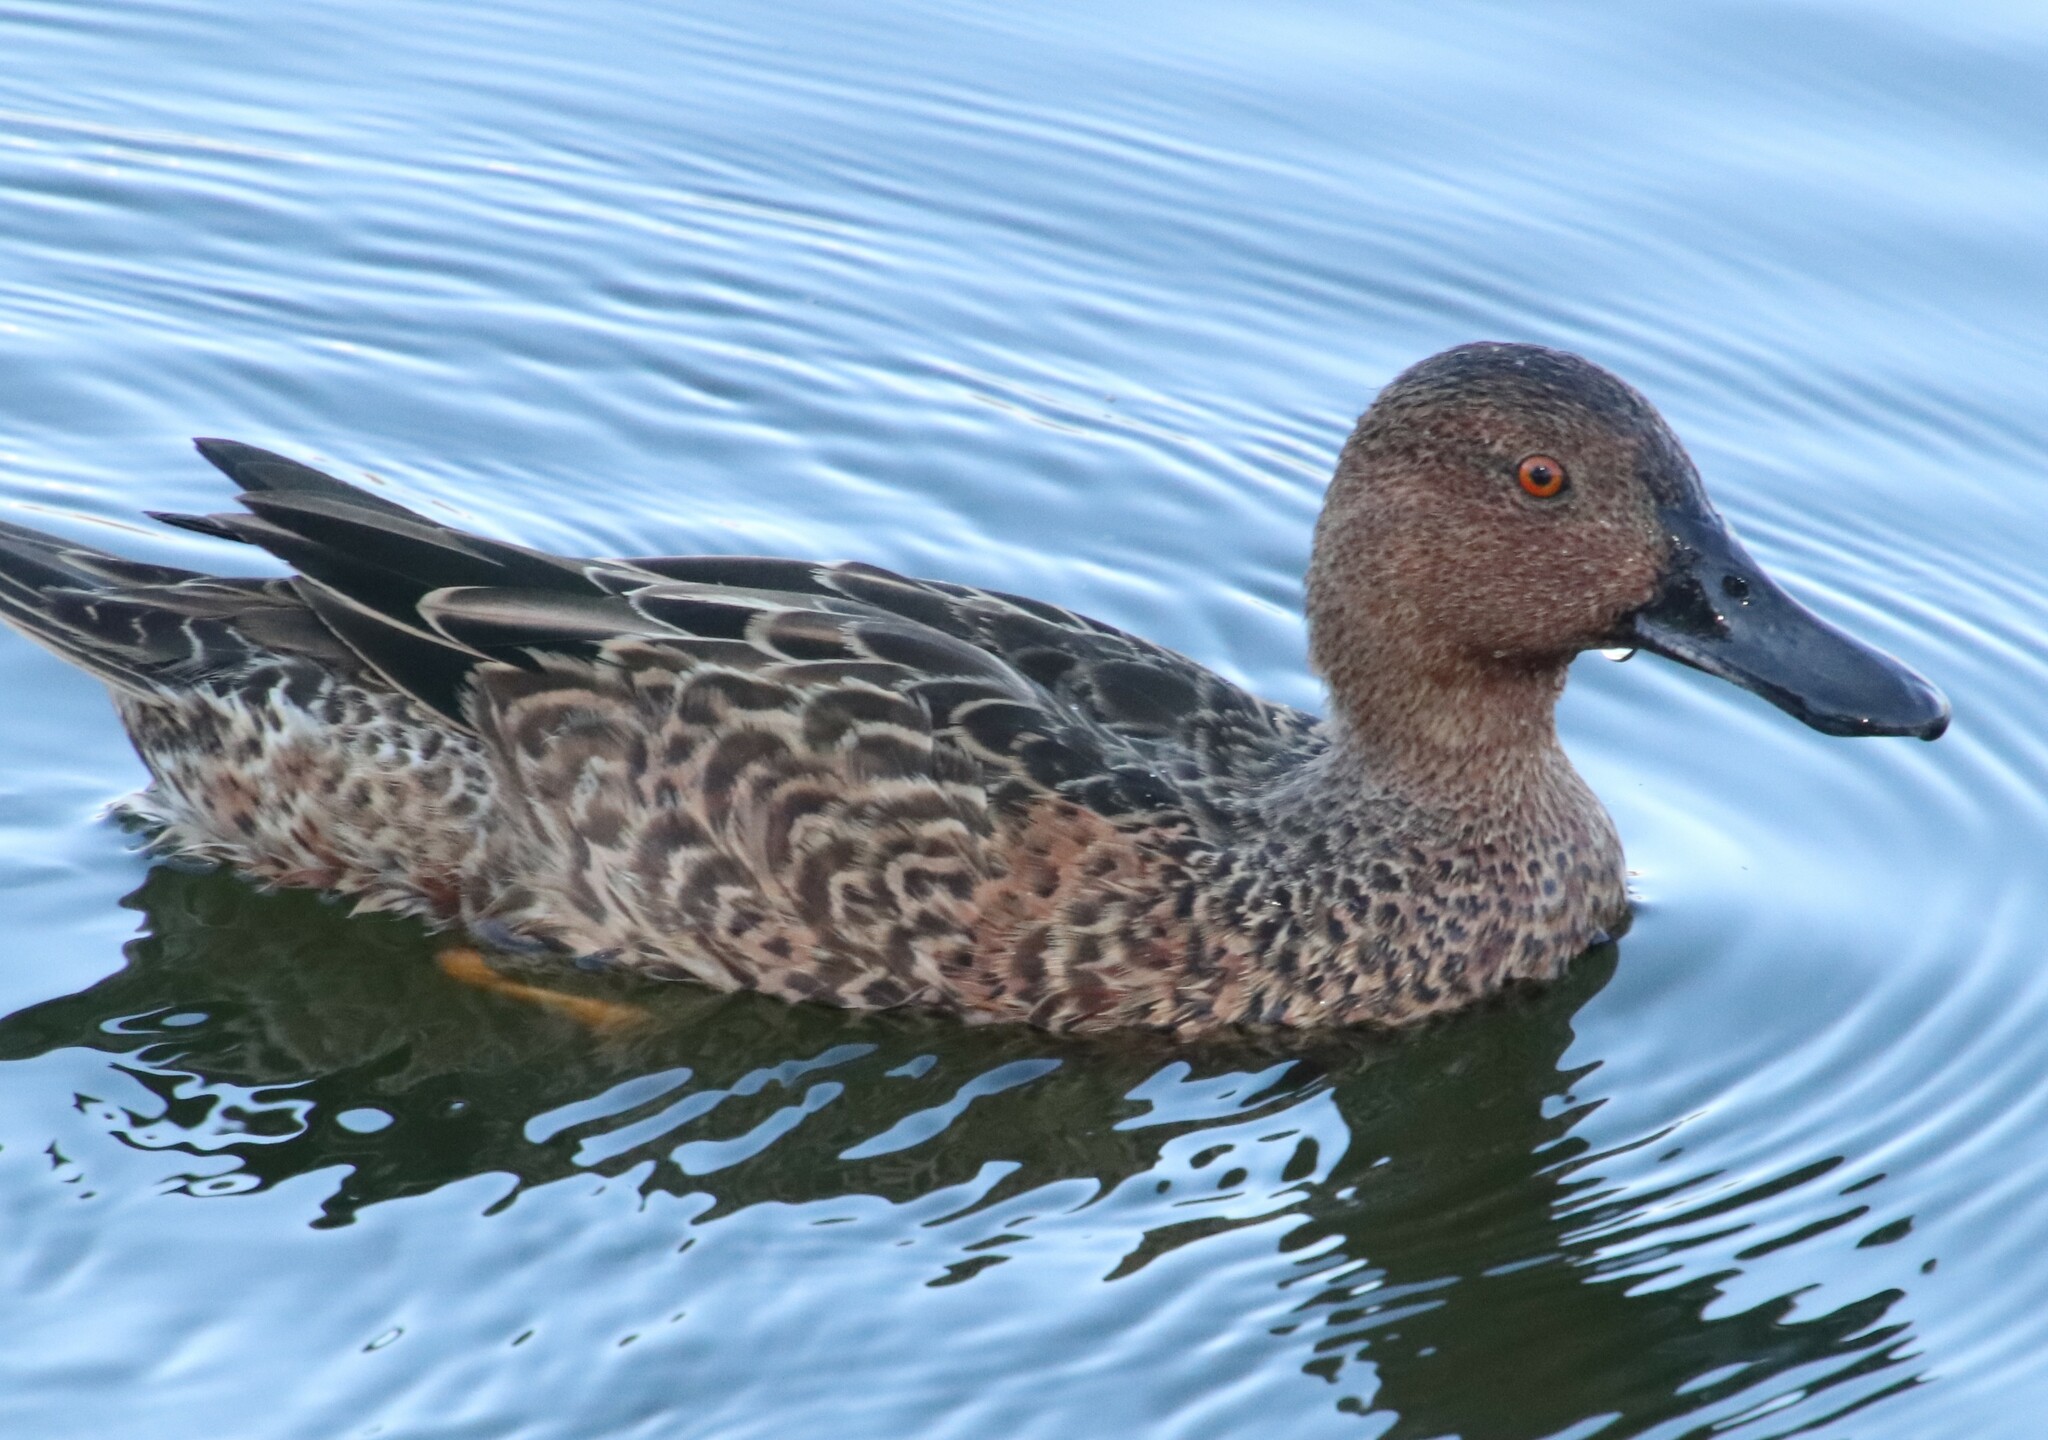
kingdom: Animalia
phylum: Chordata
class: Aves
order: Anseriformes
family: Anatidae
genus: Spatula
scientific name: Spatula cyanoptera
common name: Cinnamon teal
